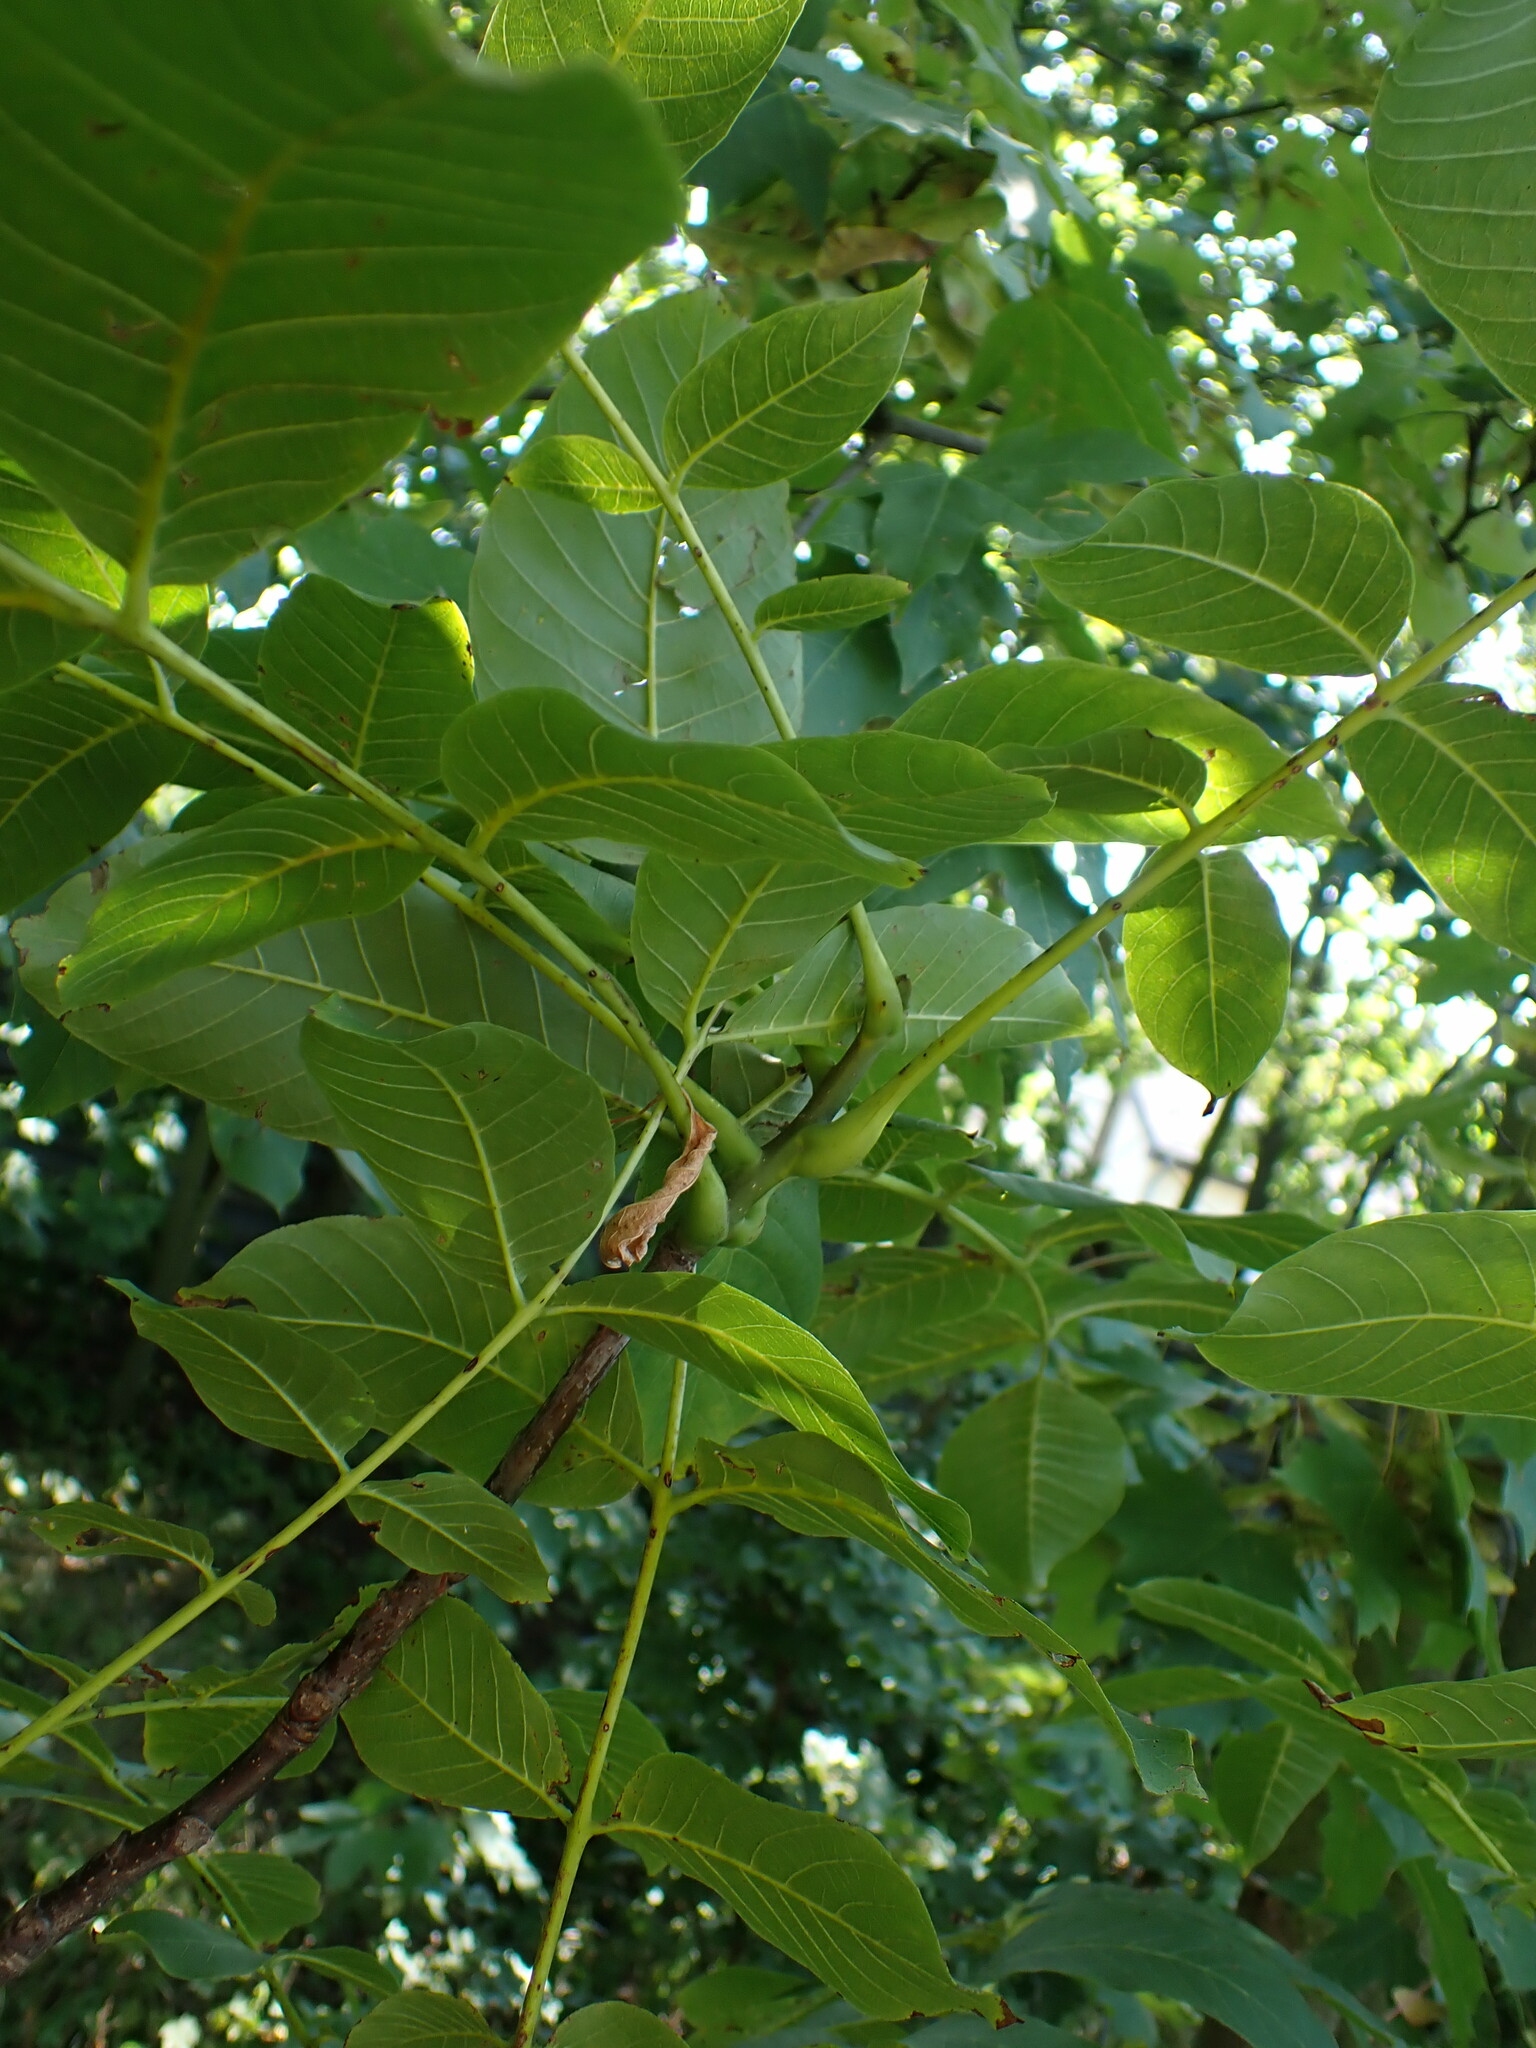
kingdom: Plantae
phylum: Tracheophyta
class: Magnoliopsida
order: Fagales
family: Juglandaceae
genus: Juglans
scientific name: Juglans regia
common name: Walnut
